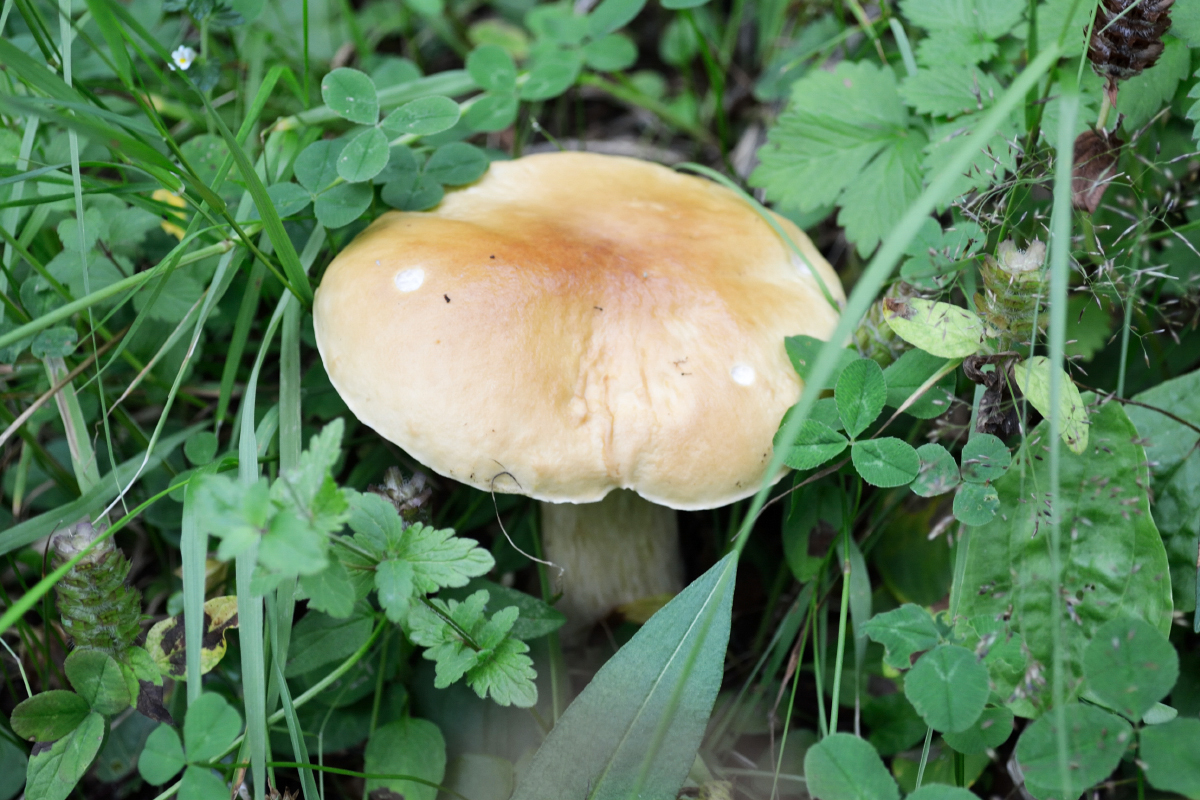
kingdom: Fungi
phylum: Basidiomycota
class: Agaricomycetes
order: Boletales
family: Boletaceae
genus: Boletus
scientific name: Boletus edulis
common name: Cep
